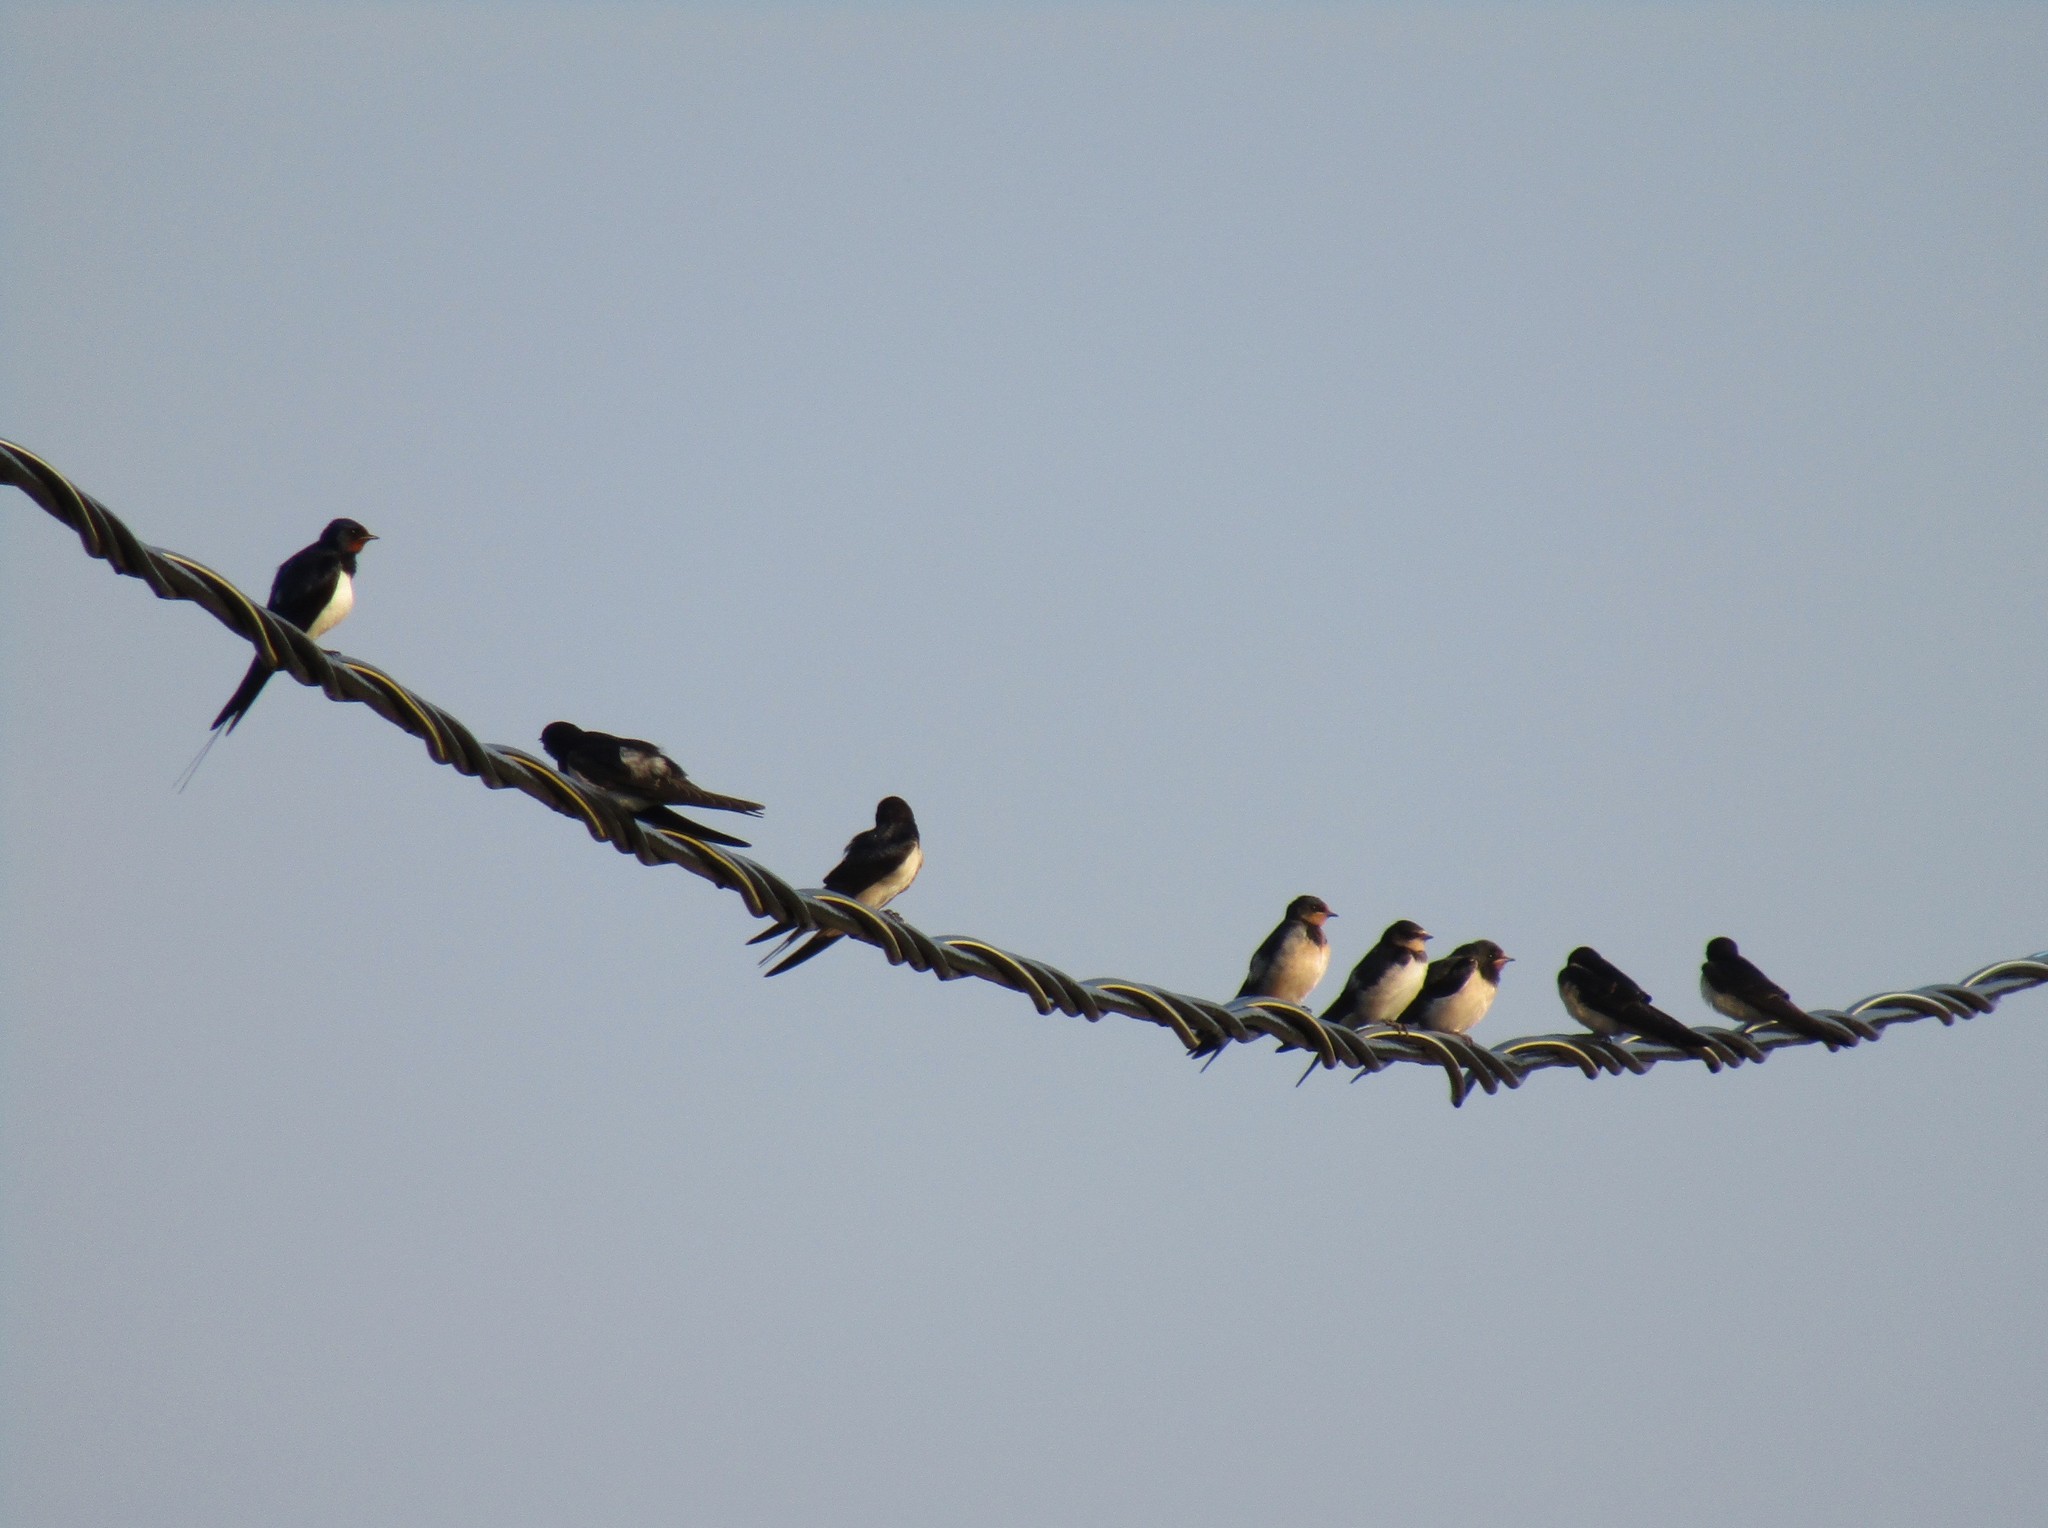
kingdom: Animalia
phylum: Chordata
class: Aves
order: Passeriformes
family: Hirundinidae
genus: Hirundo
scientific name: Hirundo rustica
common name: Barn swallow
